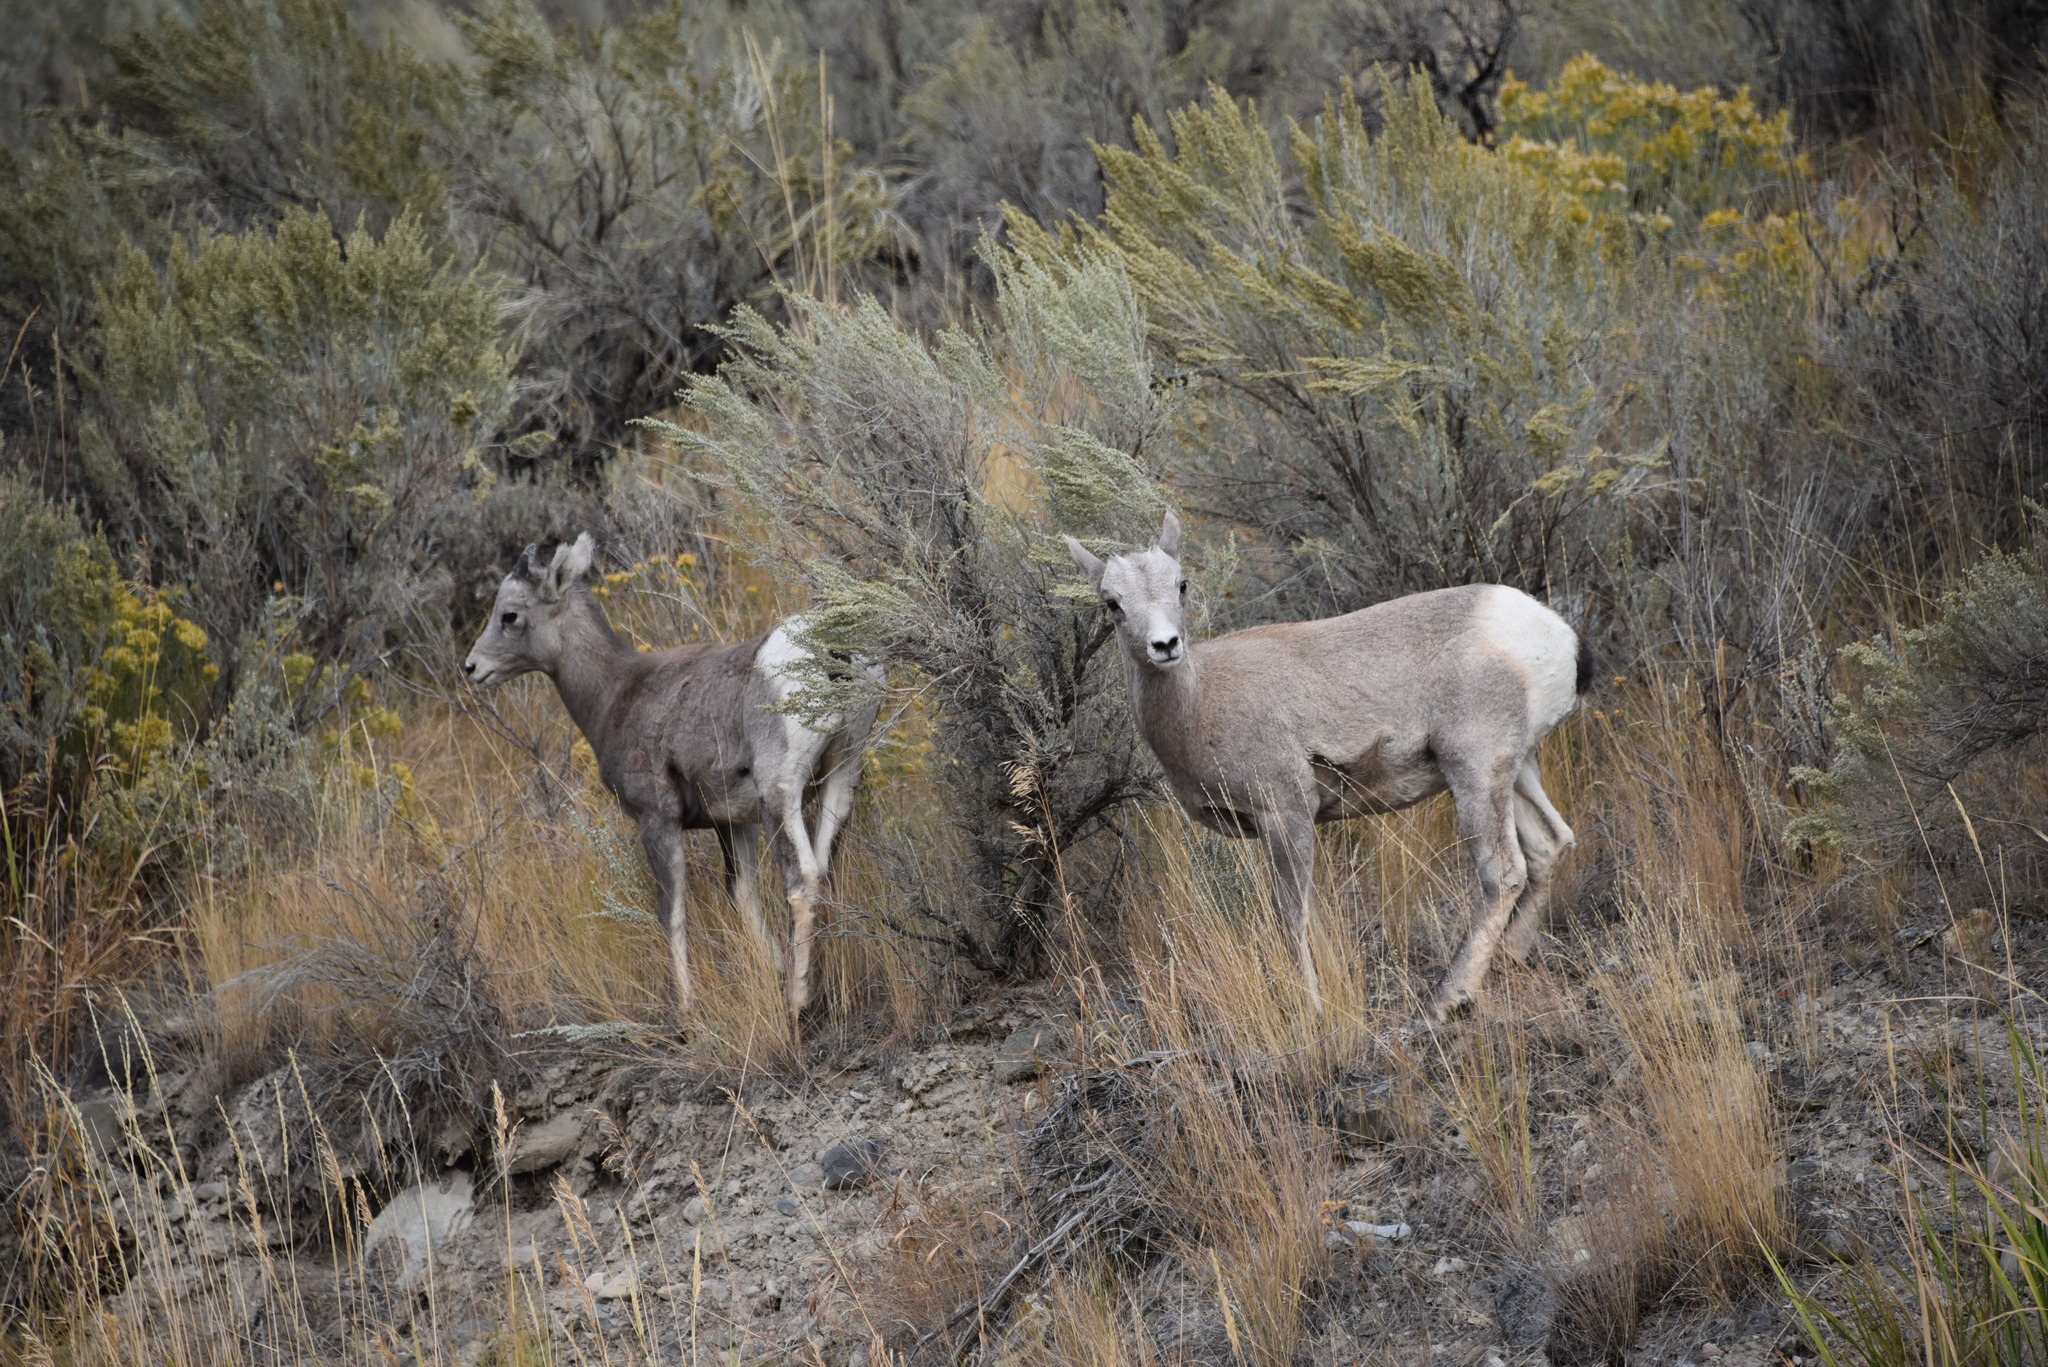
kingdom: Animalia
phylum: Chordata
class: Mammalia
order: Artiodactyla
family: Bovidae
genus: Ovis
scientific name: Ovis canadensis
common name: Bighorn sheep
